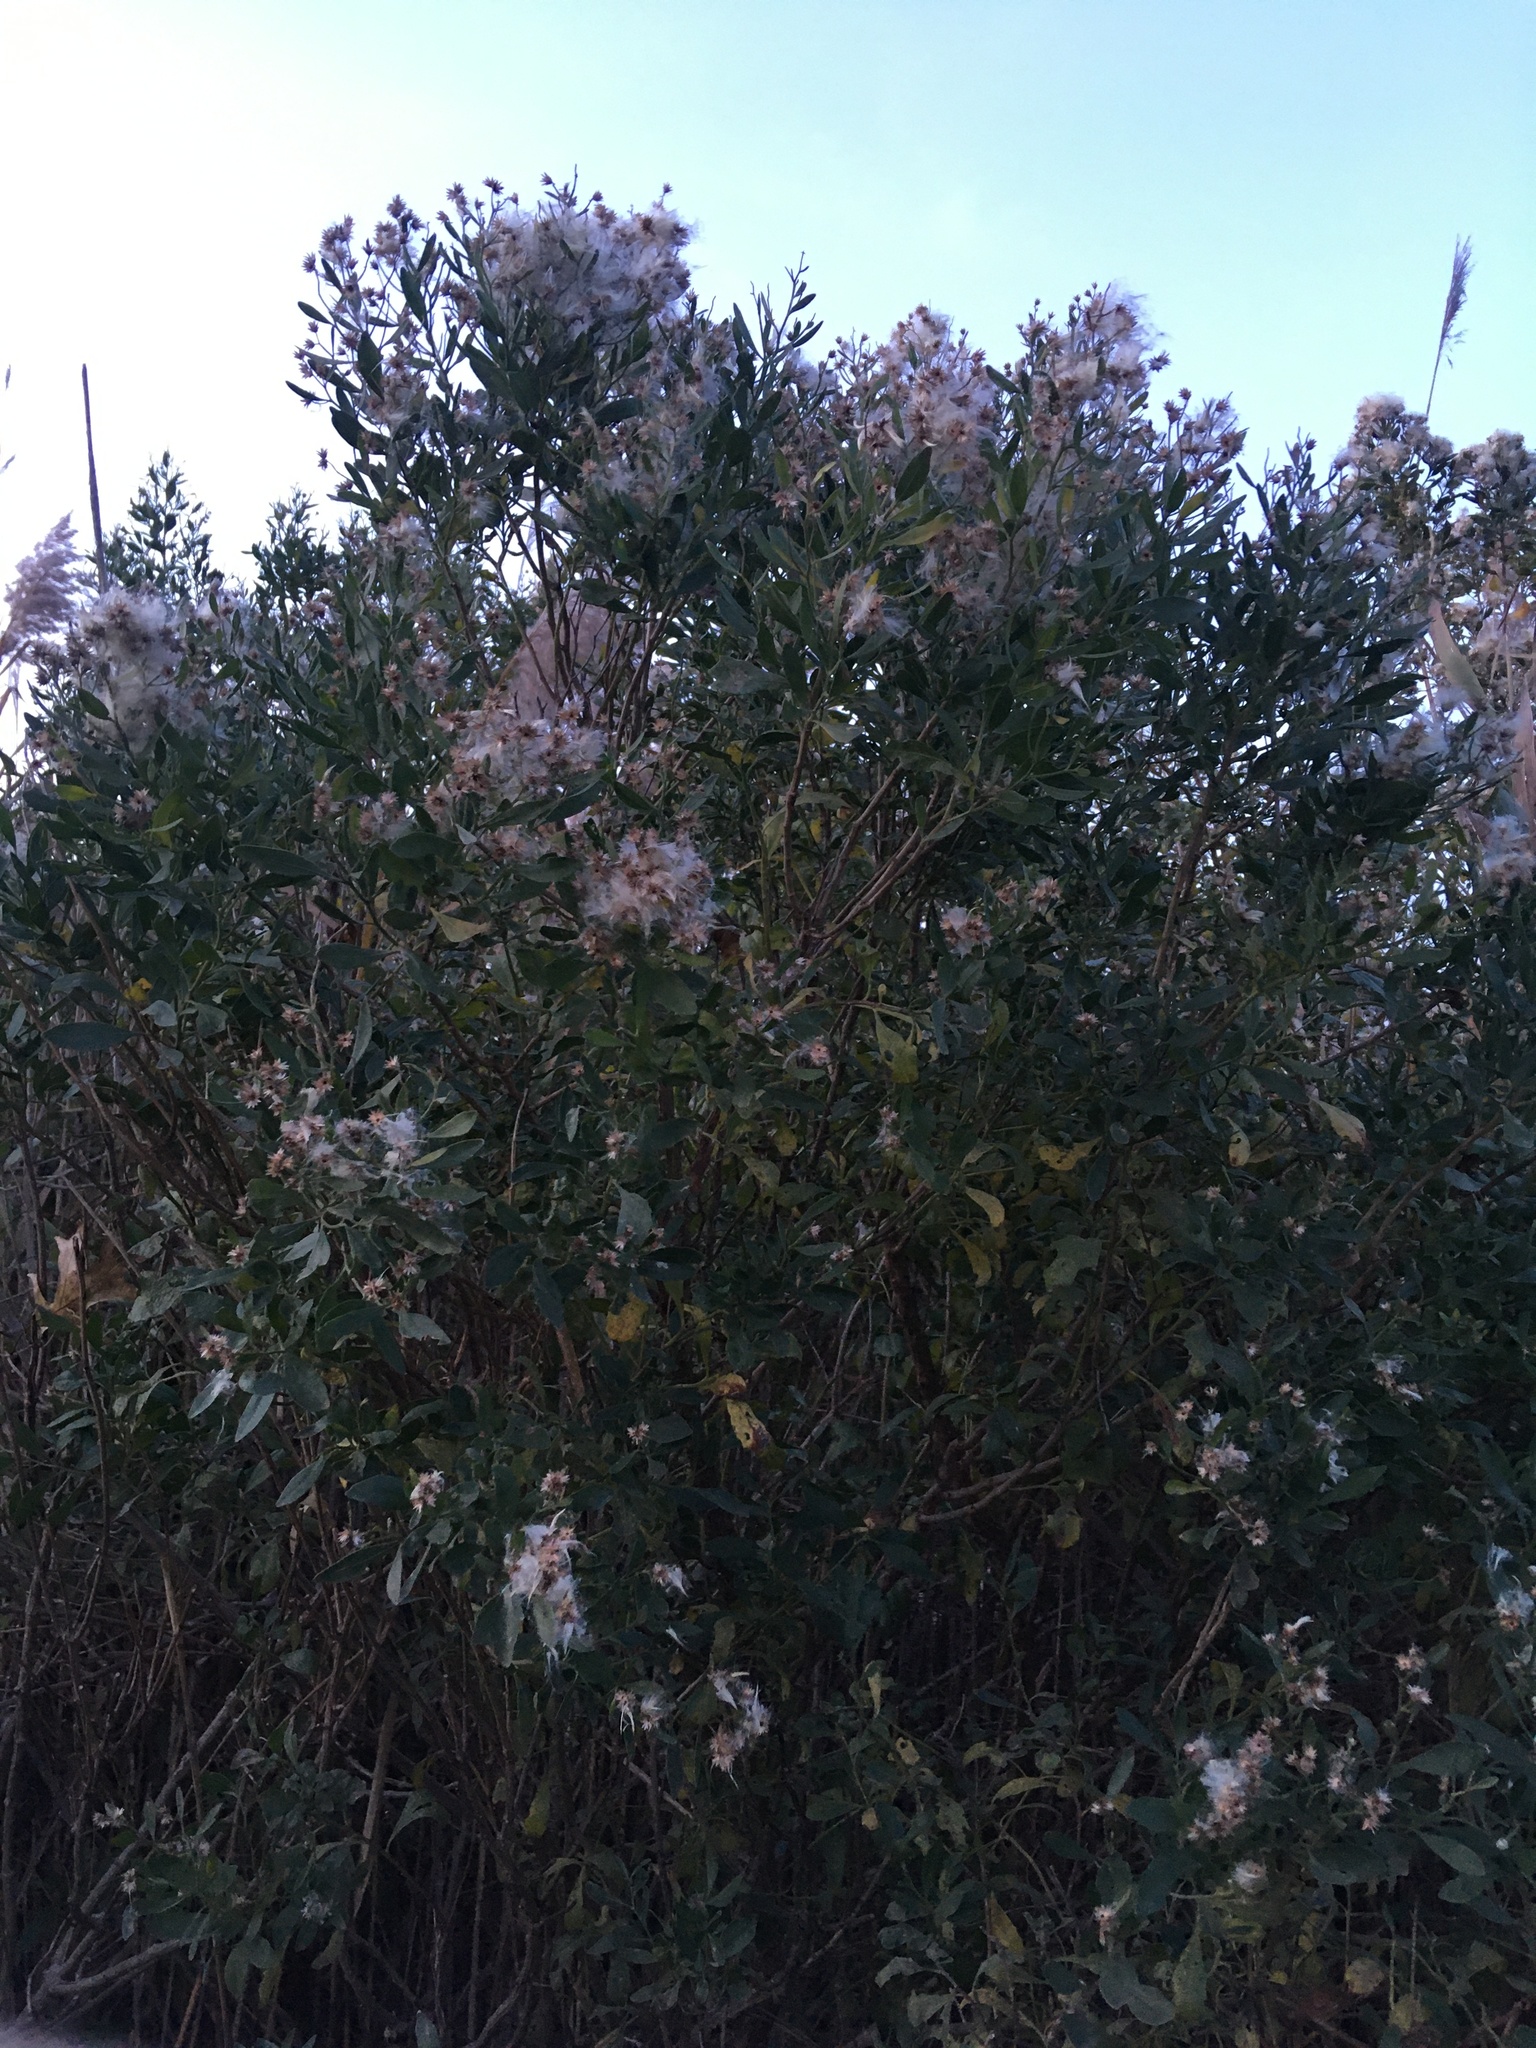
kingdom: Plantae
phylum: Tracheophyta
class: Magnoliopsida
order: Asterales
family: Asteraceae
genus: Baccharis
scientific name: Baccharis halimifolia
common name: Eastern baccharis
